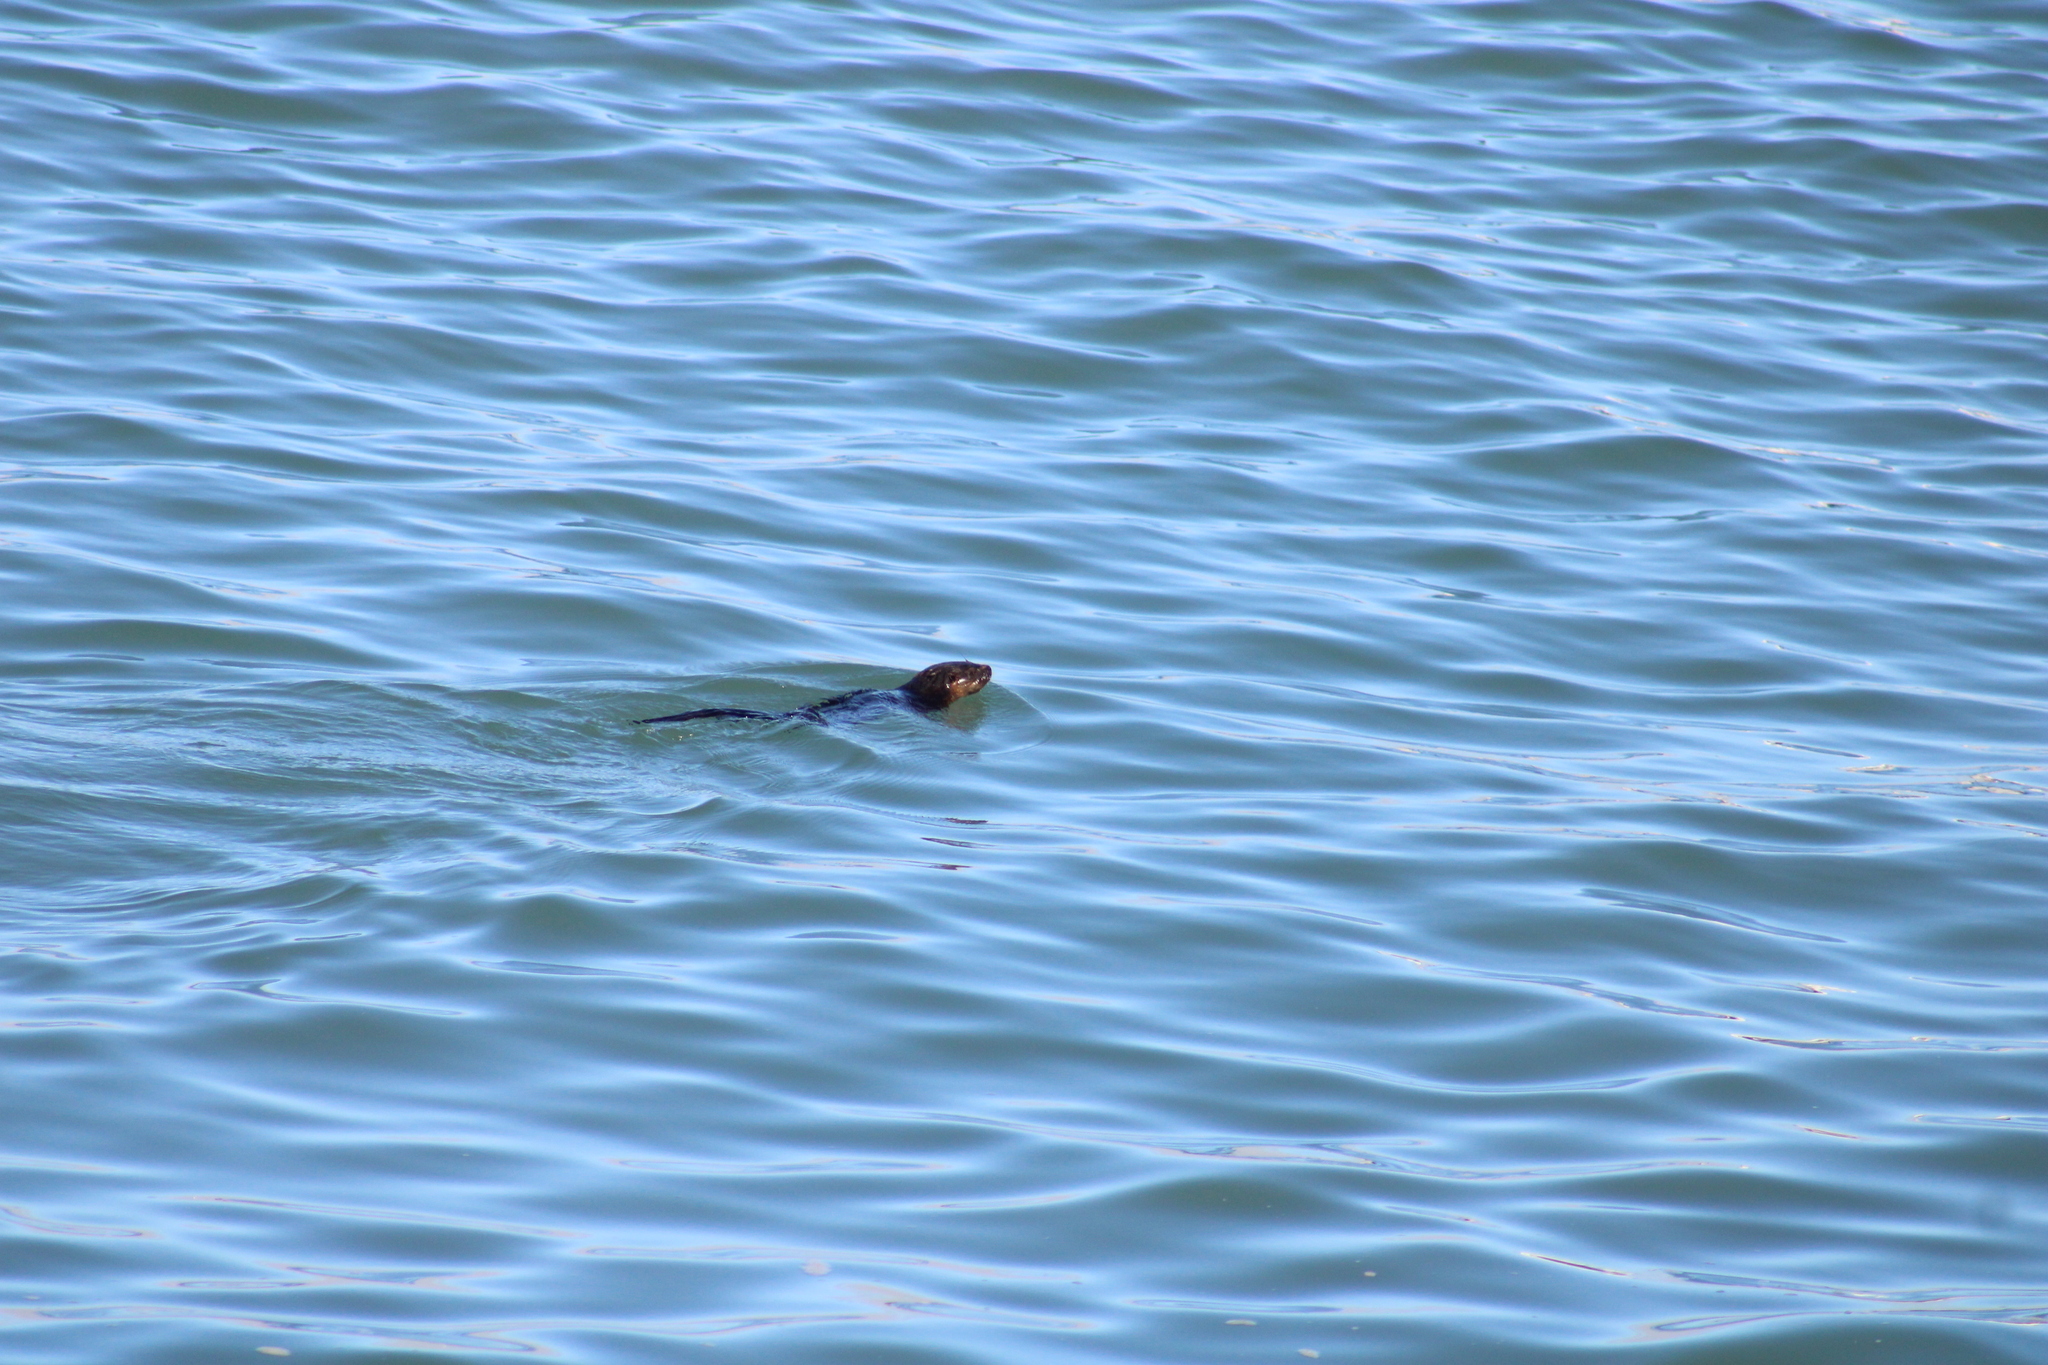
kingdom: Animalia
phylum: Chordata
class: Mammalia
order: Carnivora
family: Mustelidae
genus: Lontra
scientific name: Lontra felina
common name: Marine otter
